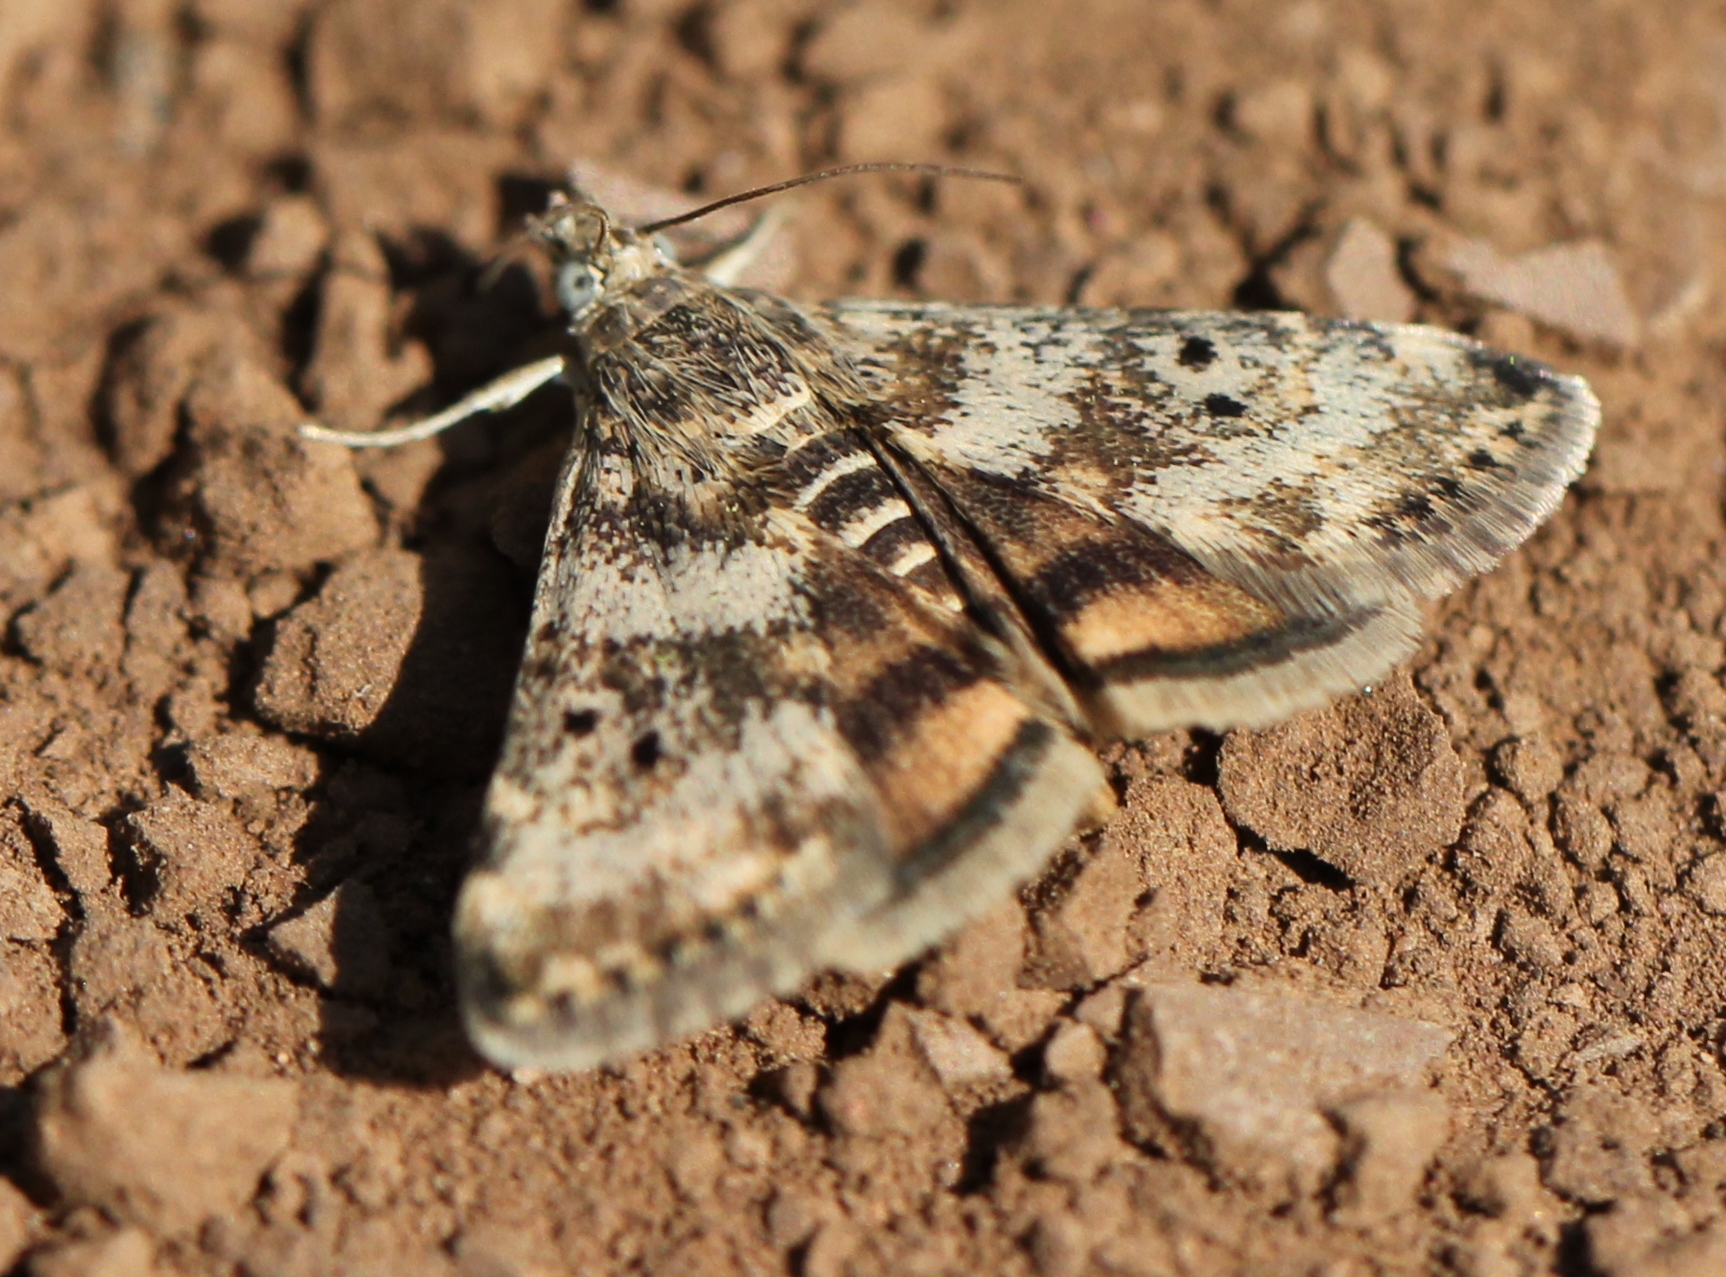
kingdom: Animalia
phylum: Arthropoda
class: Insecta
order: Lepidoptera
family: Crambidae
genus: Noctuelia
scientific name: Noctuelia Aporodes floralis
